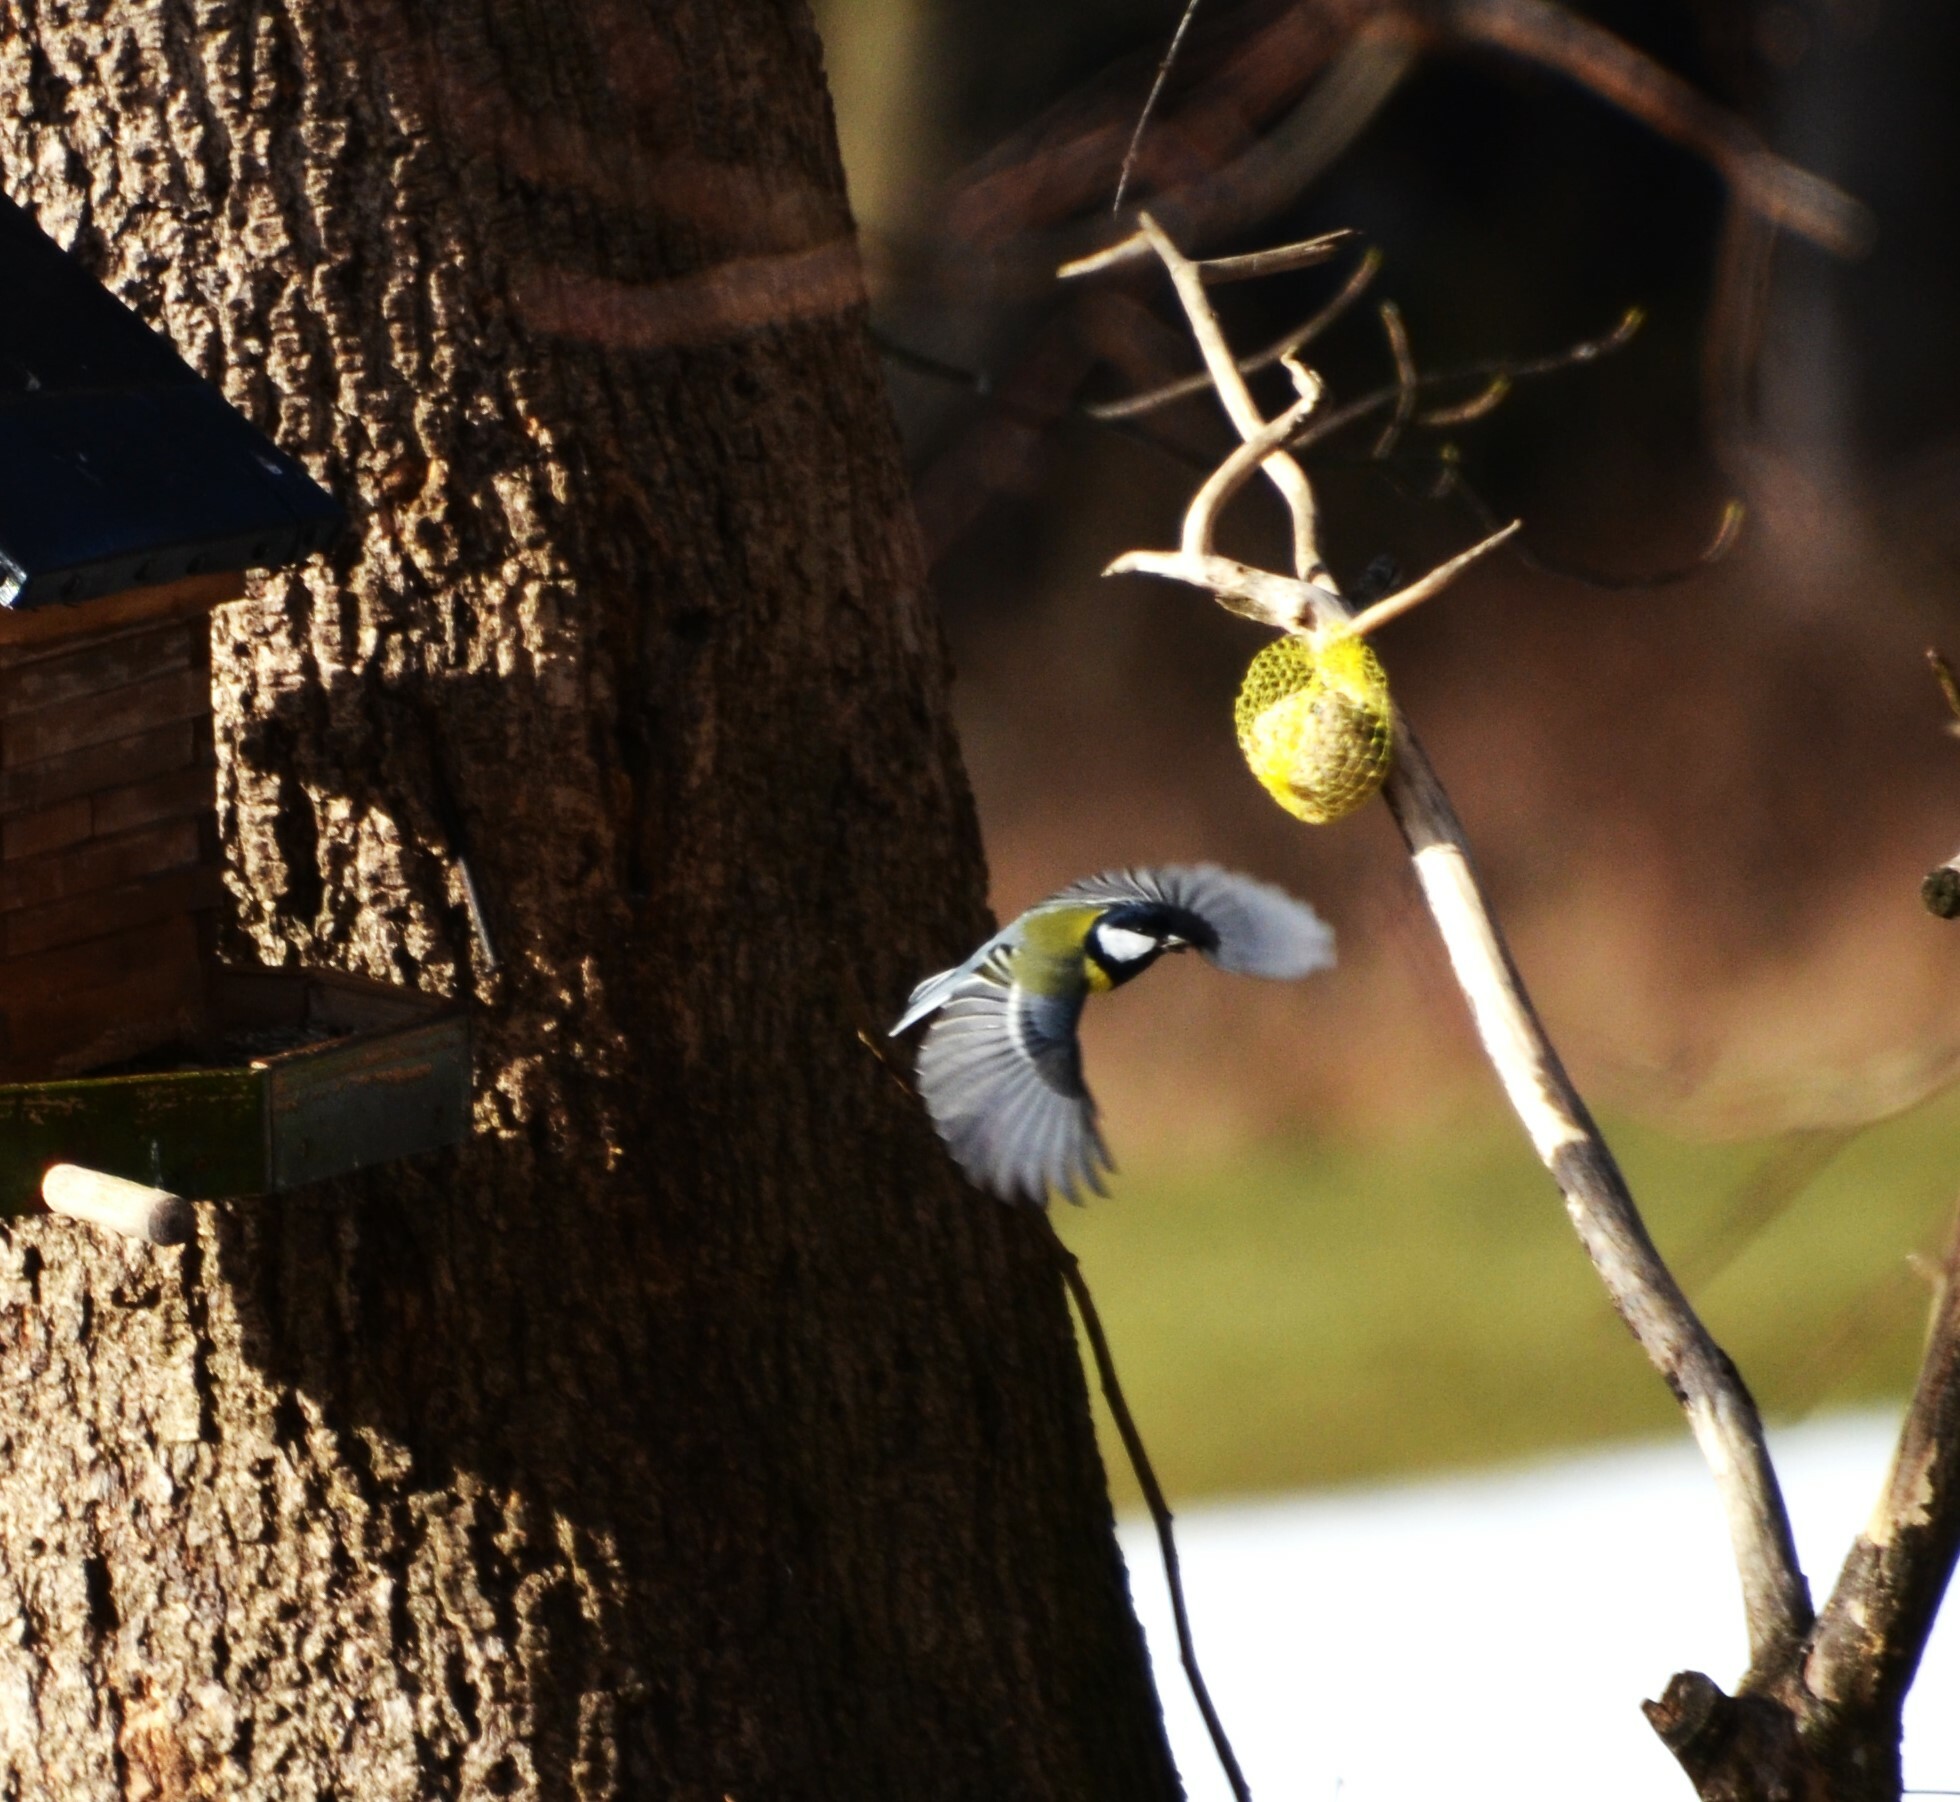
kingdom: Animalia
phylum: Chordata
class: Aves
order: Passeriformes
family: Paridae
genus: Parus
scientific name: Parus major
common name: Great tit
